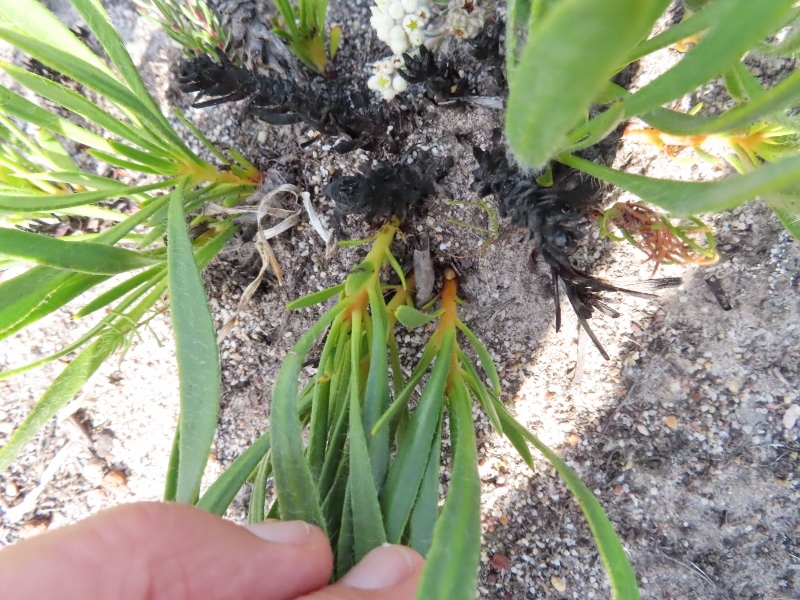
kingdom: Plantae
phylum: Tracheophyta
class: Magnoliopsida
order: Proteales
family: Proteaceae
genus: Protea
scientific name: Protea aspera
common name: Rough-leaf sugarbush
